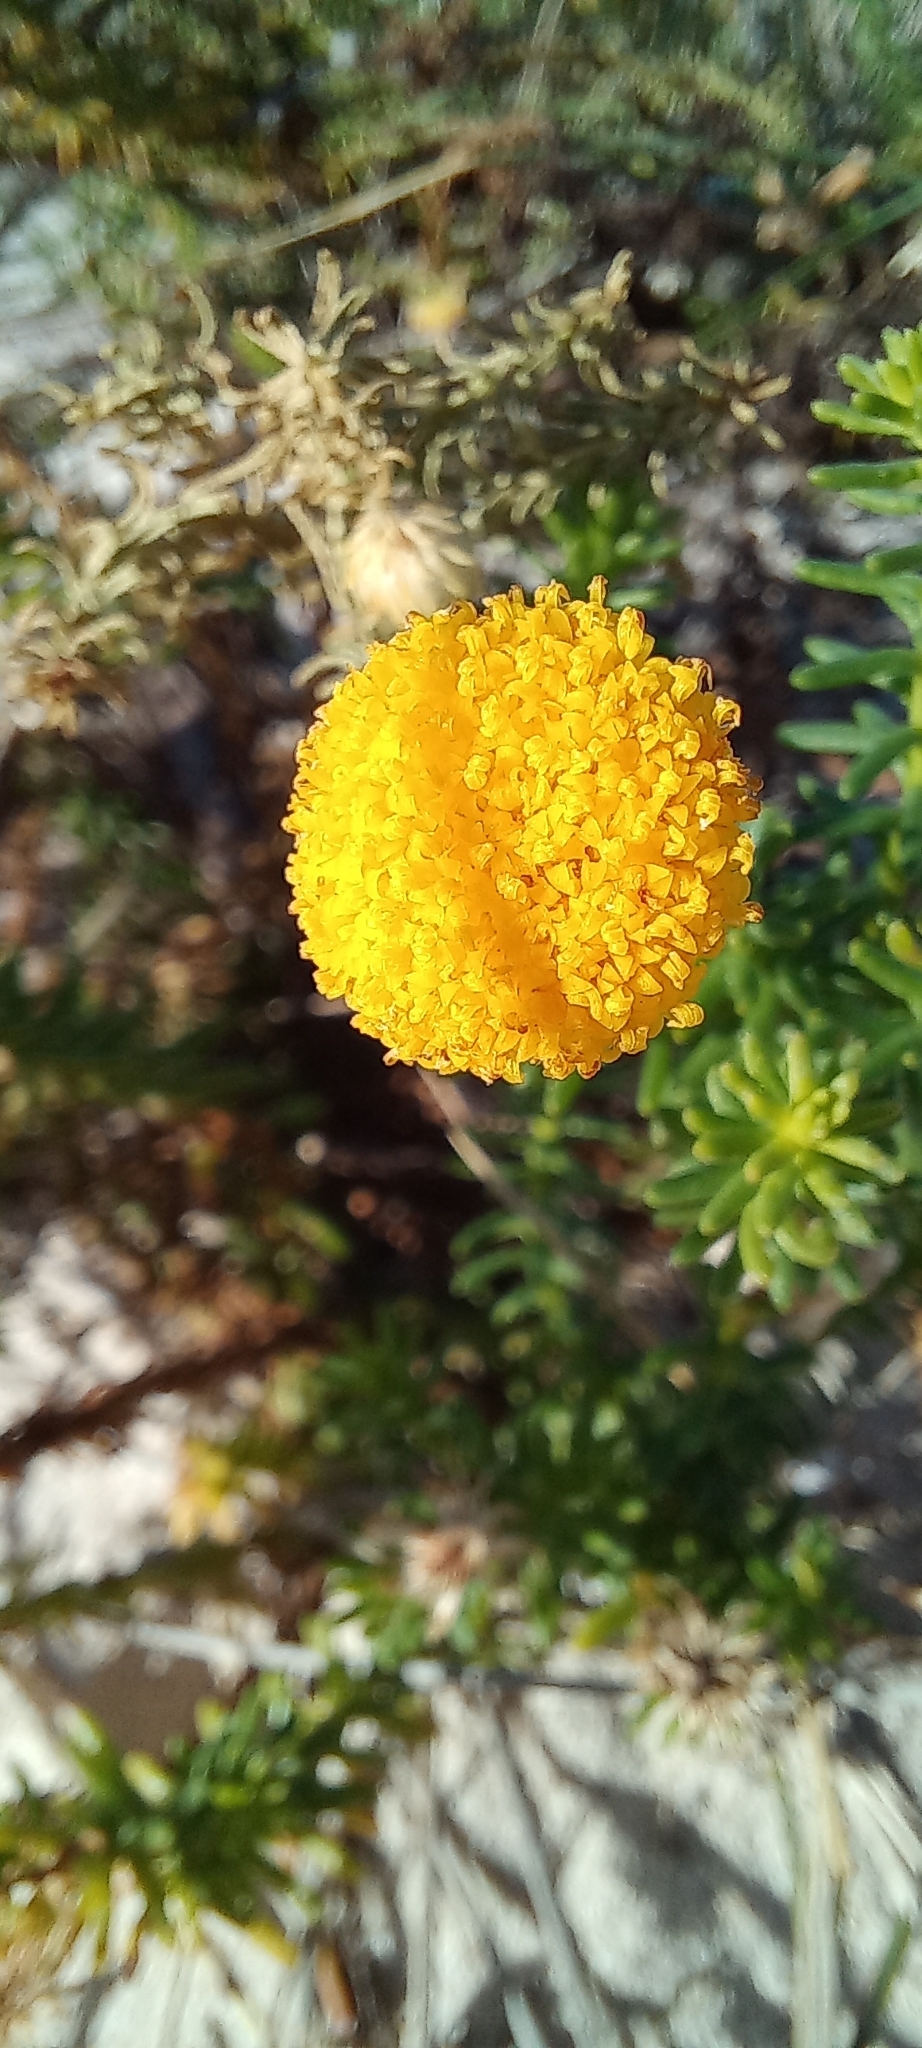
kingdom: Plantae
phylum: Tracheophyta
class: Magnoliopsida
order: Asterales
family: Asteraceae
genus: Chrysocoma
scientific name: Chrysocoma cernua
